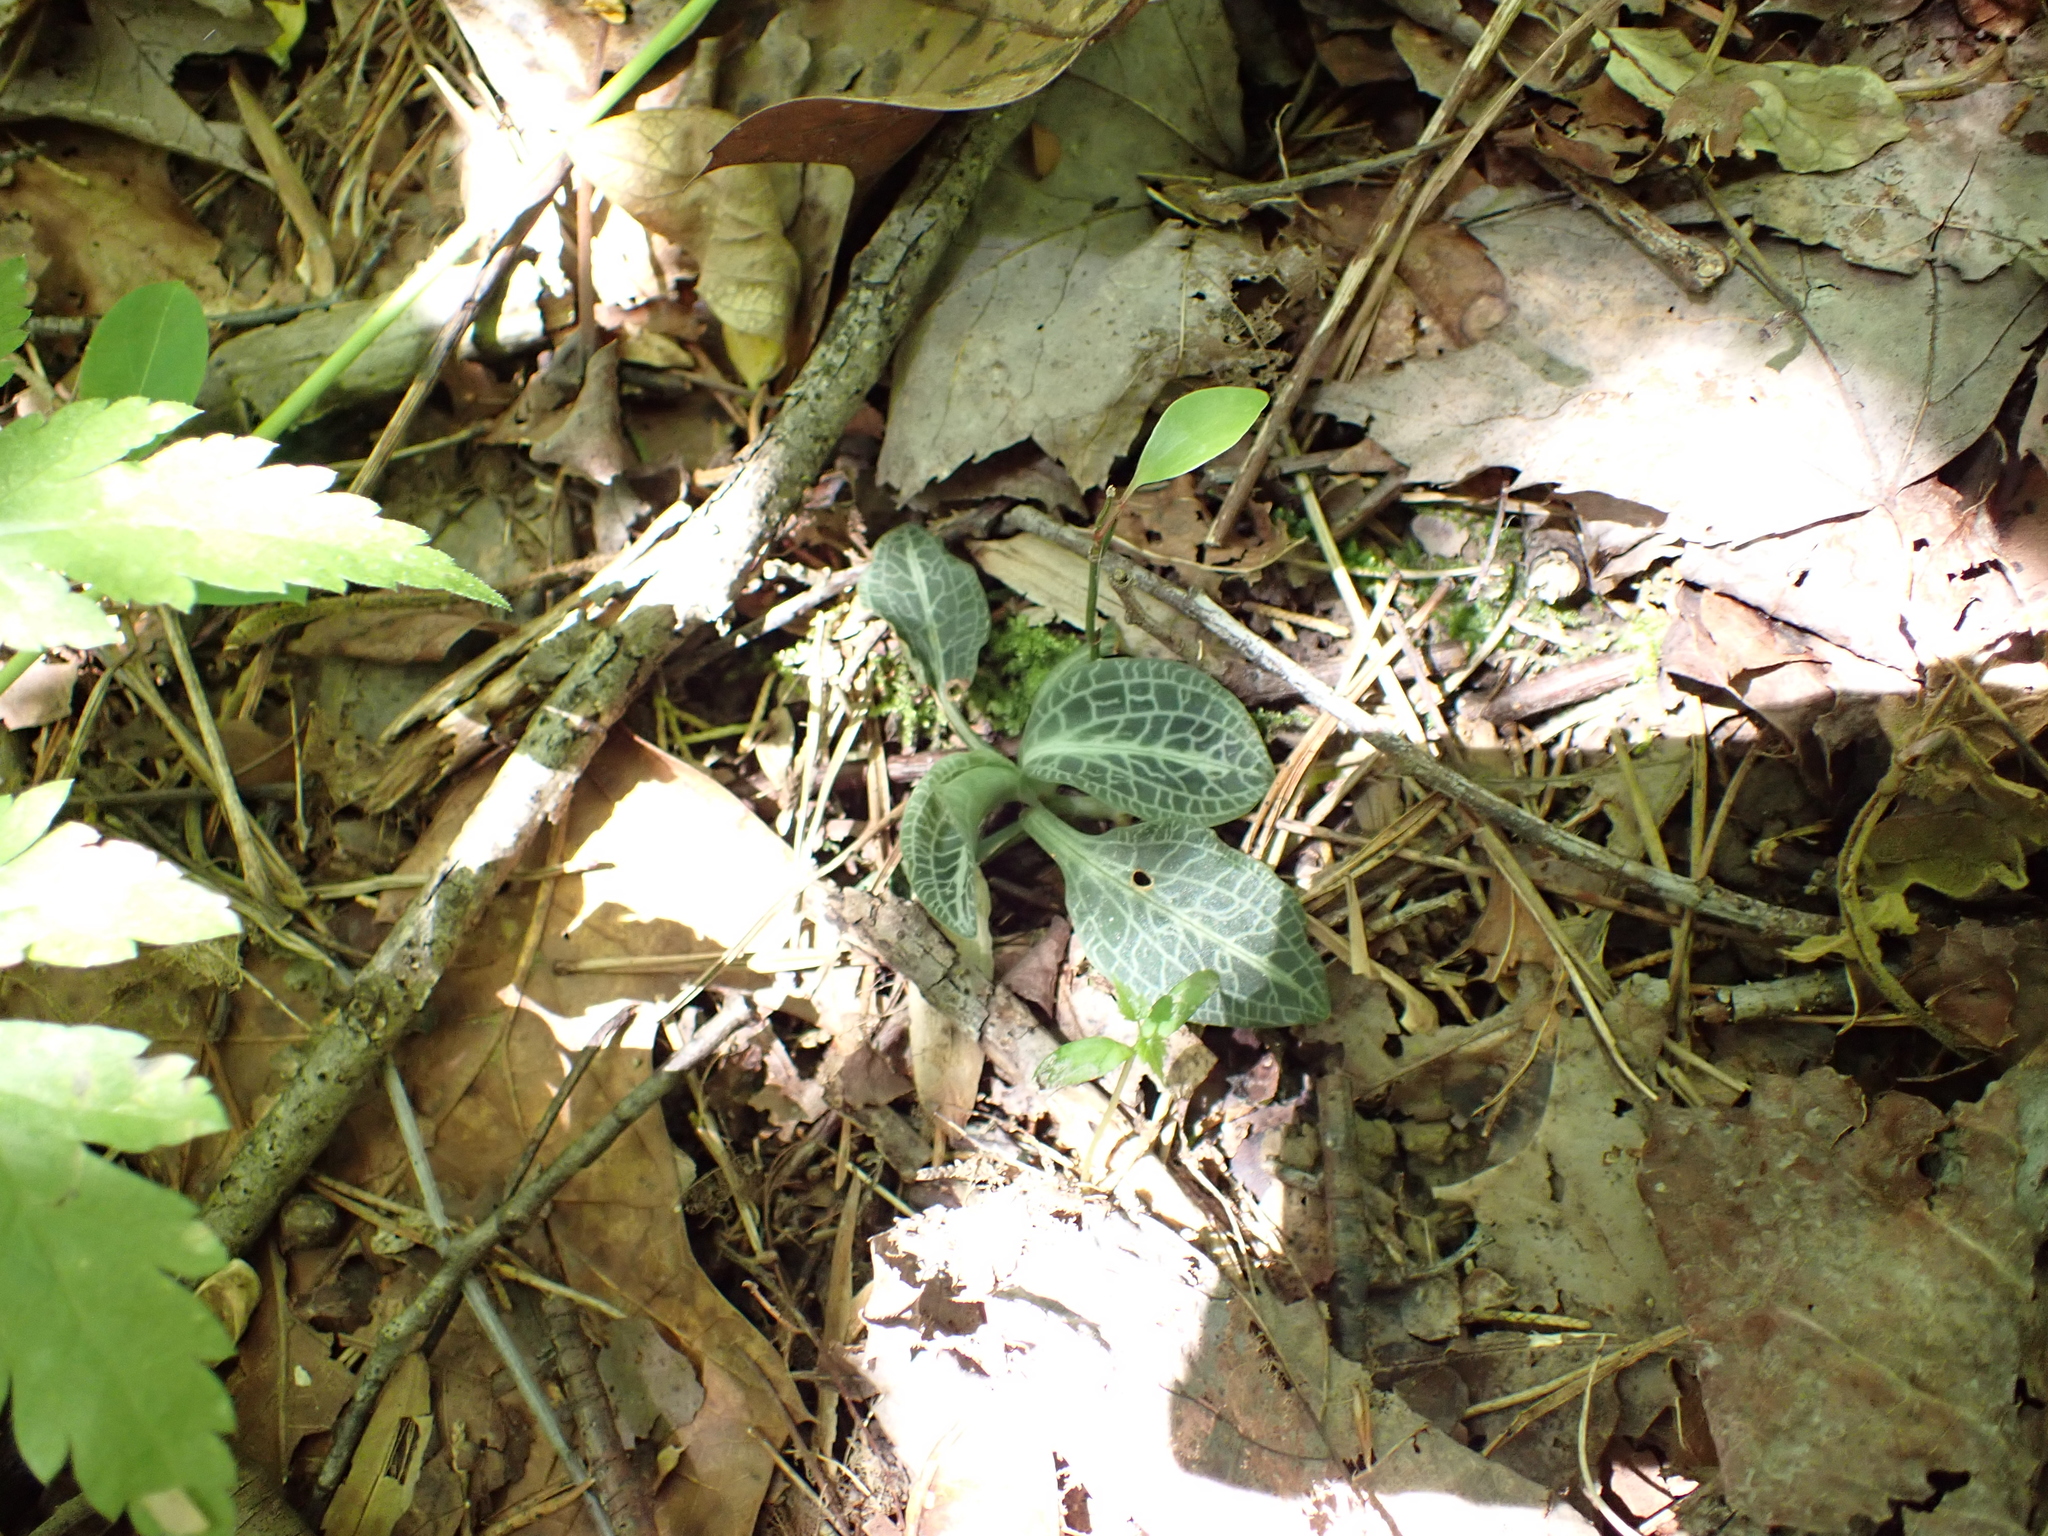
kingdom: Plantae
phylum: Tracheophyta
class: Liliopsida
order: Asparagales
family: Orchidaceae
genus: Goodyera
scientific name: Goodyera pubescens
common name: Downy rattlesnake-plantain
